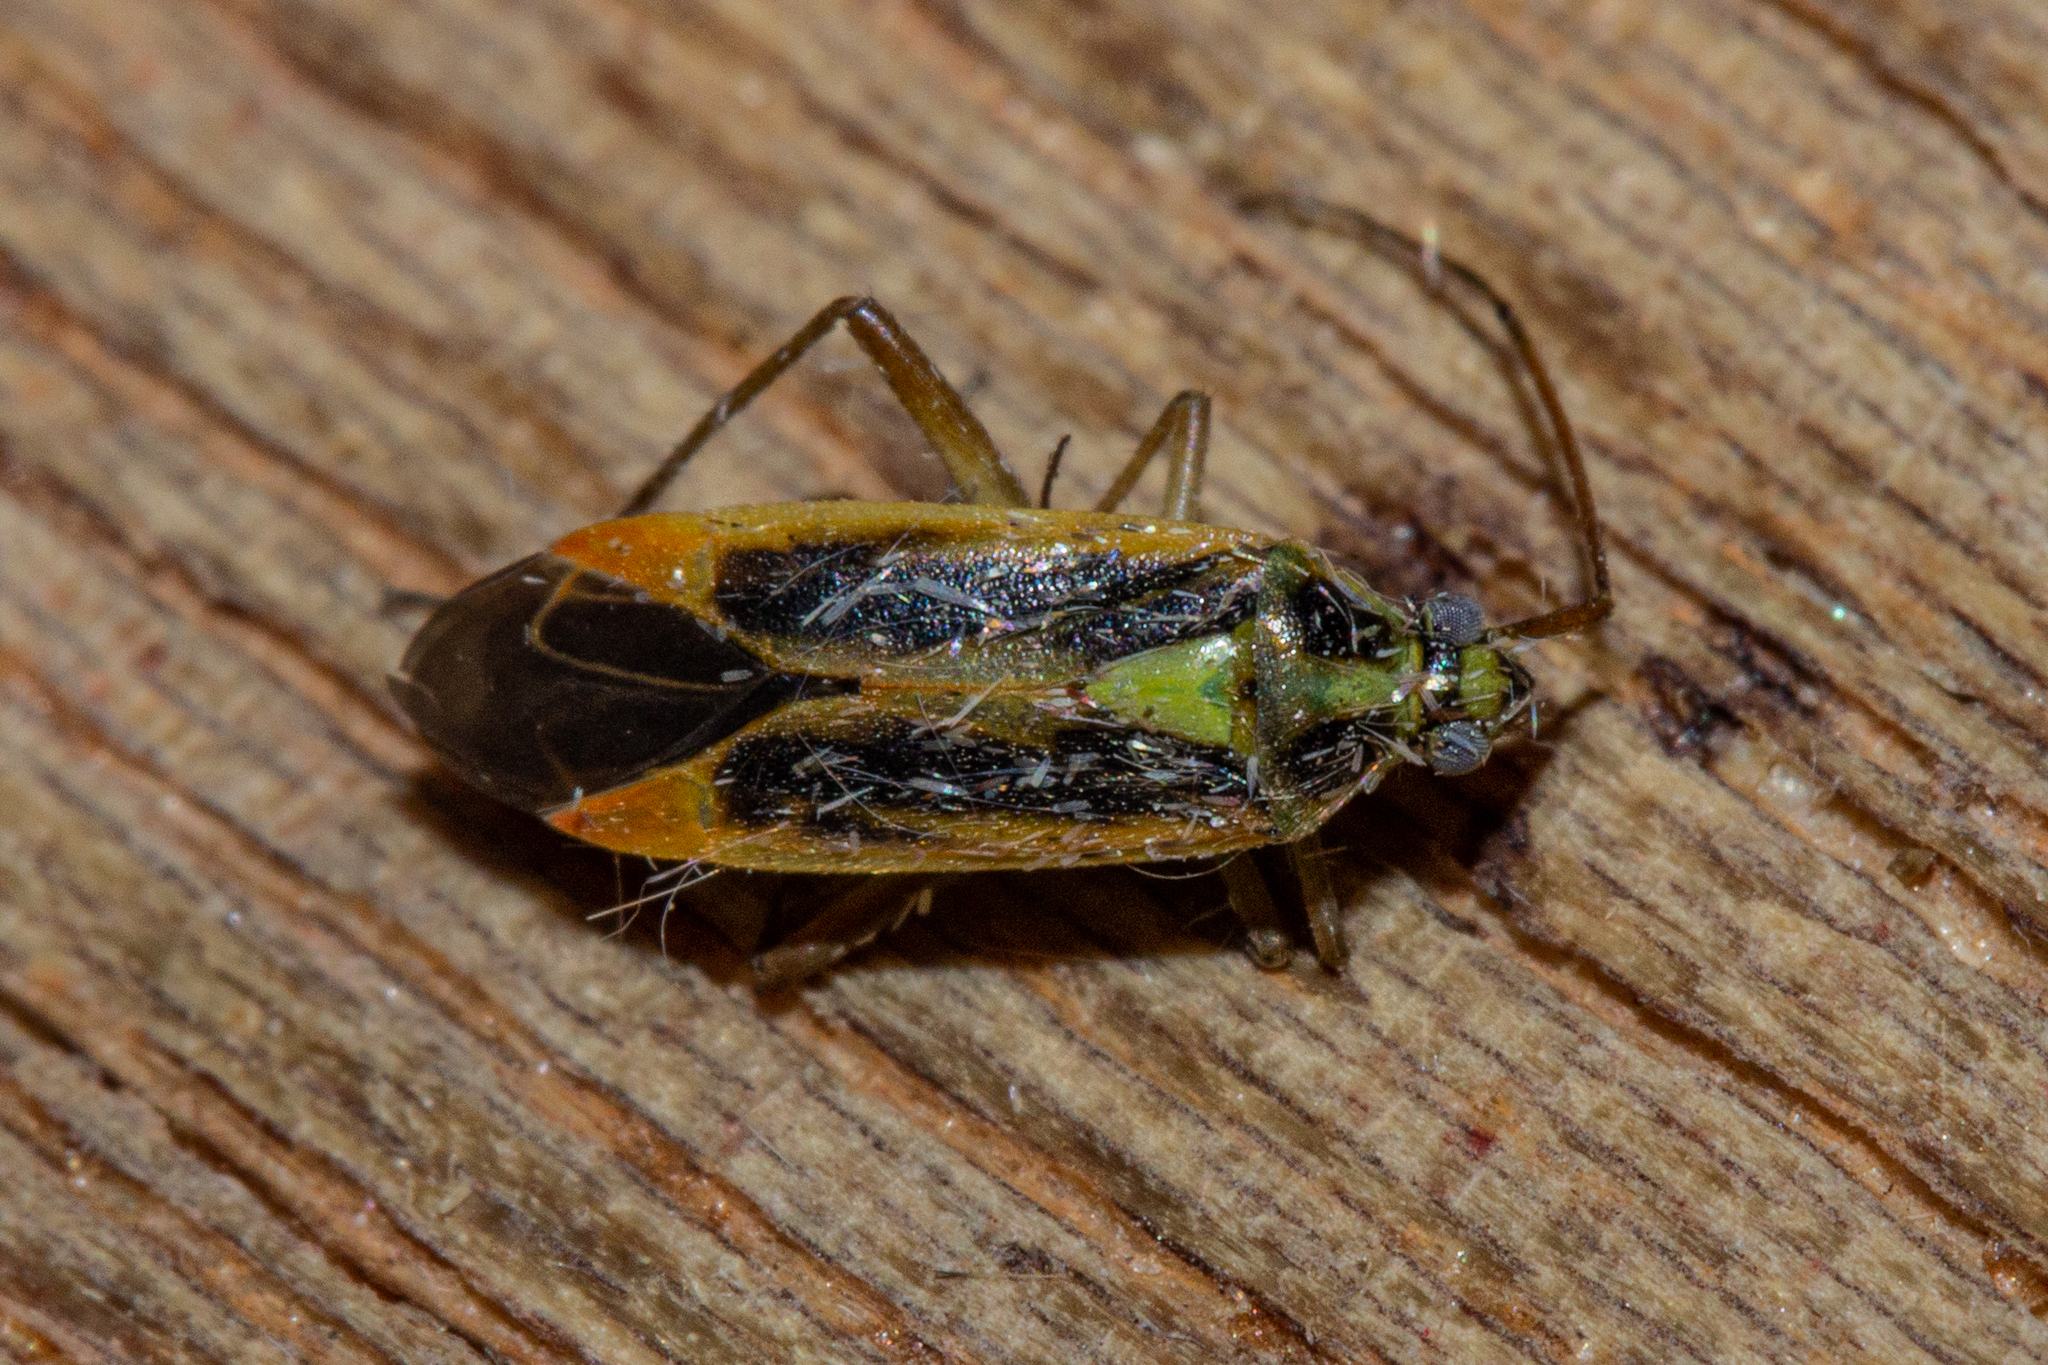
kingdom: Animalia
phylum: Arthropoda
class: Insecta
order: Hemiptera
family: Miridae
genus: Stenotus
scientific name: Stenotus binotatus
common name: Plant bug
